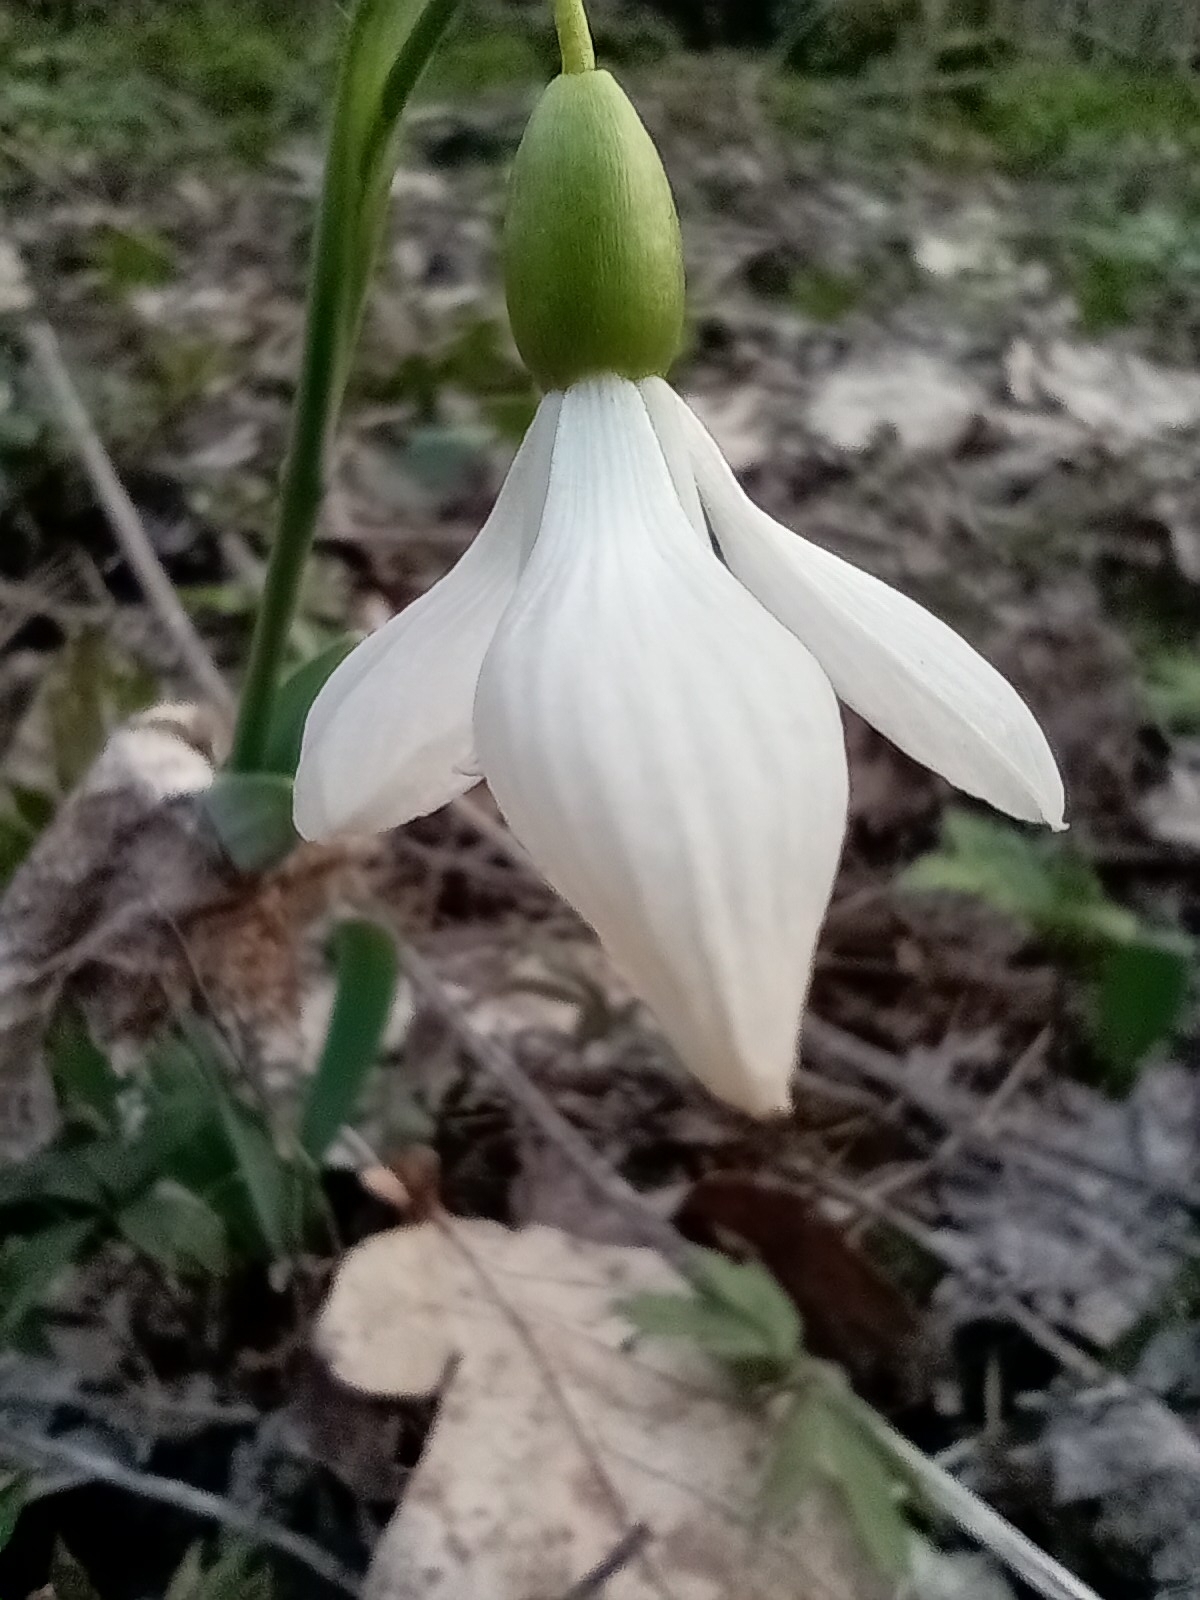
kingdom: Plantae
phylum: Tracheophyta
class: Liliopsida
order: Asparagales
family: Amaryllidaceae
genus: Galanthus
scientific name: Galanthus alpinus
